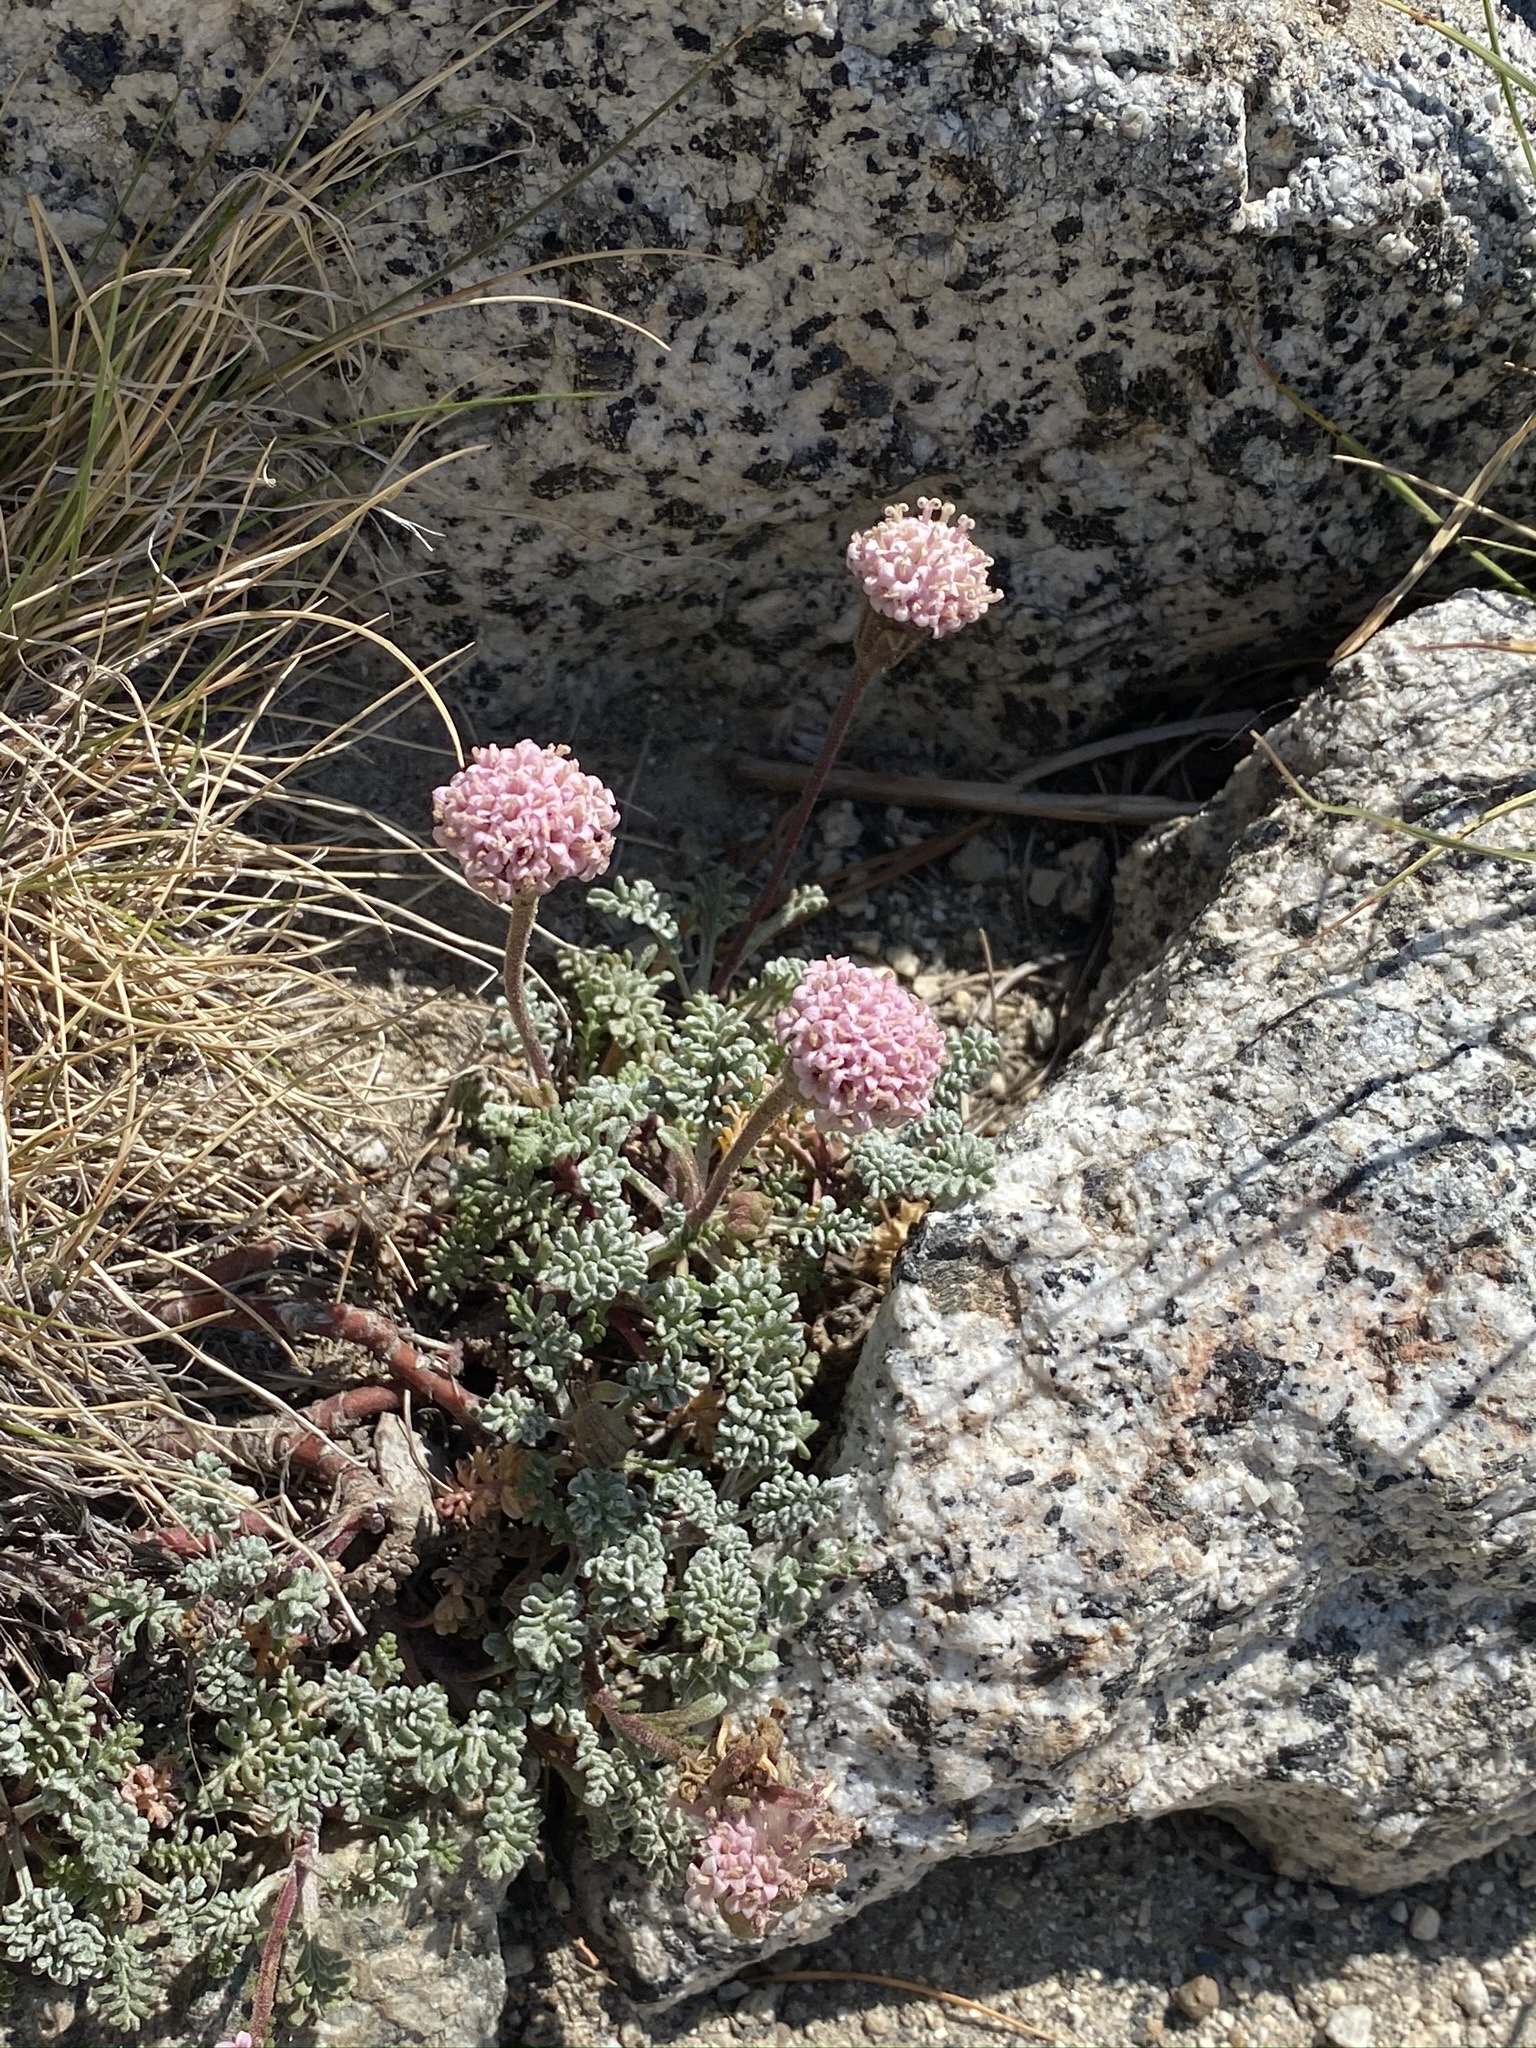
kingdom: Plantae
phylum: Tracheophyta
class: Magnoliopsida
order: Asterales
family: Asteraceae
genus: Chaenactis
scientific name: Chaenactis douglasii
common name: Hoary pincushion
